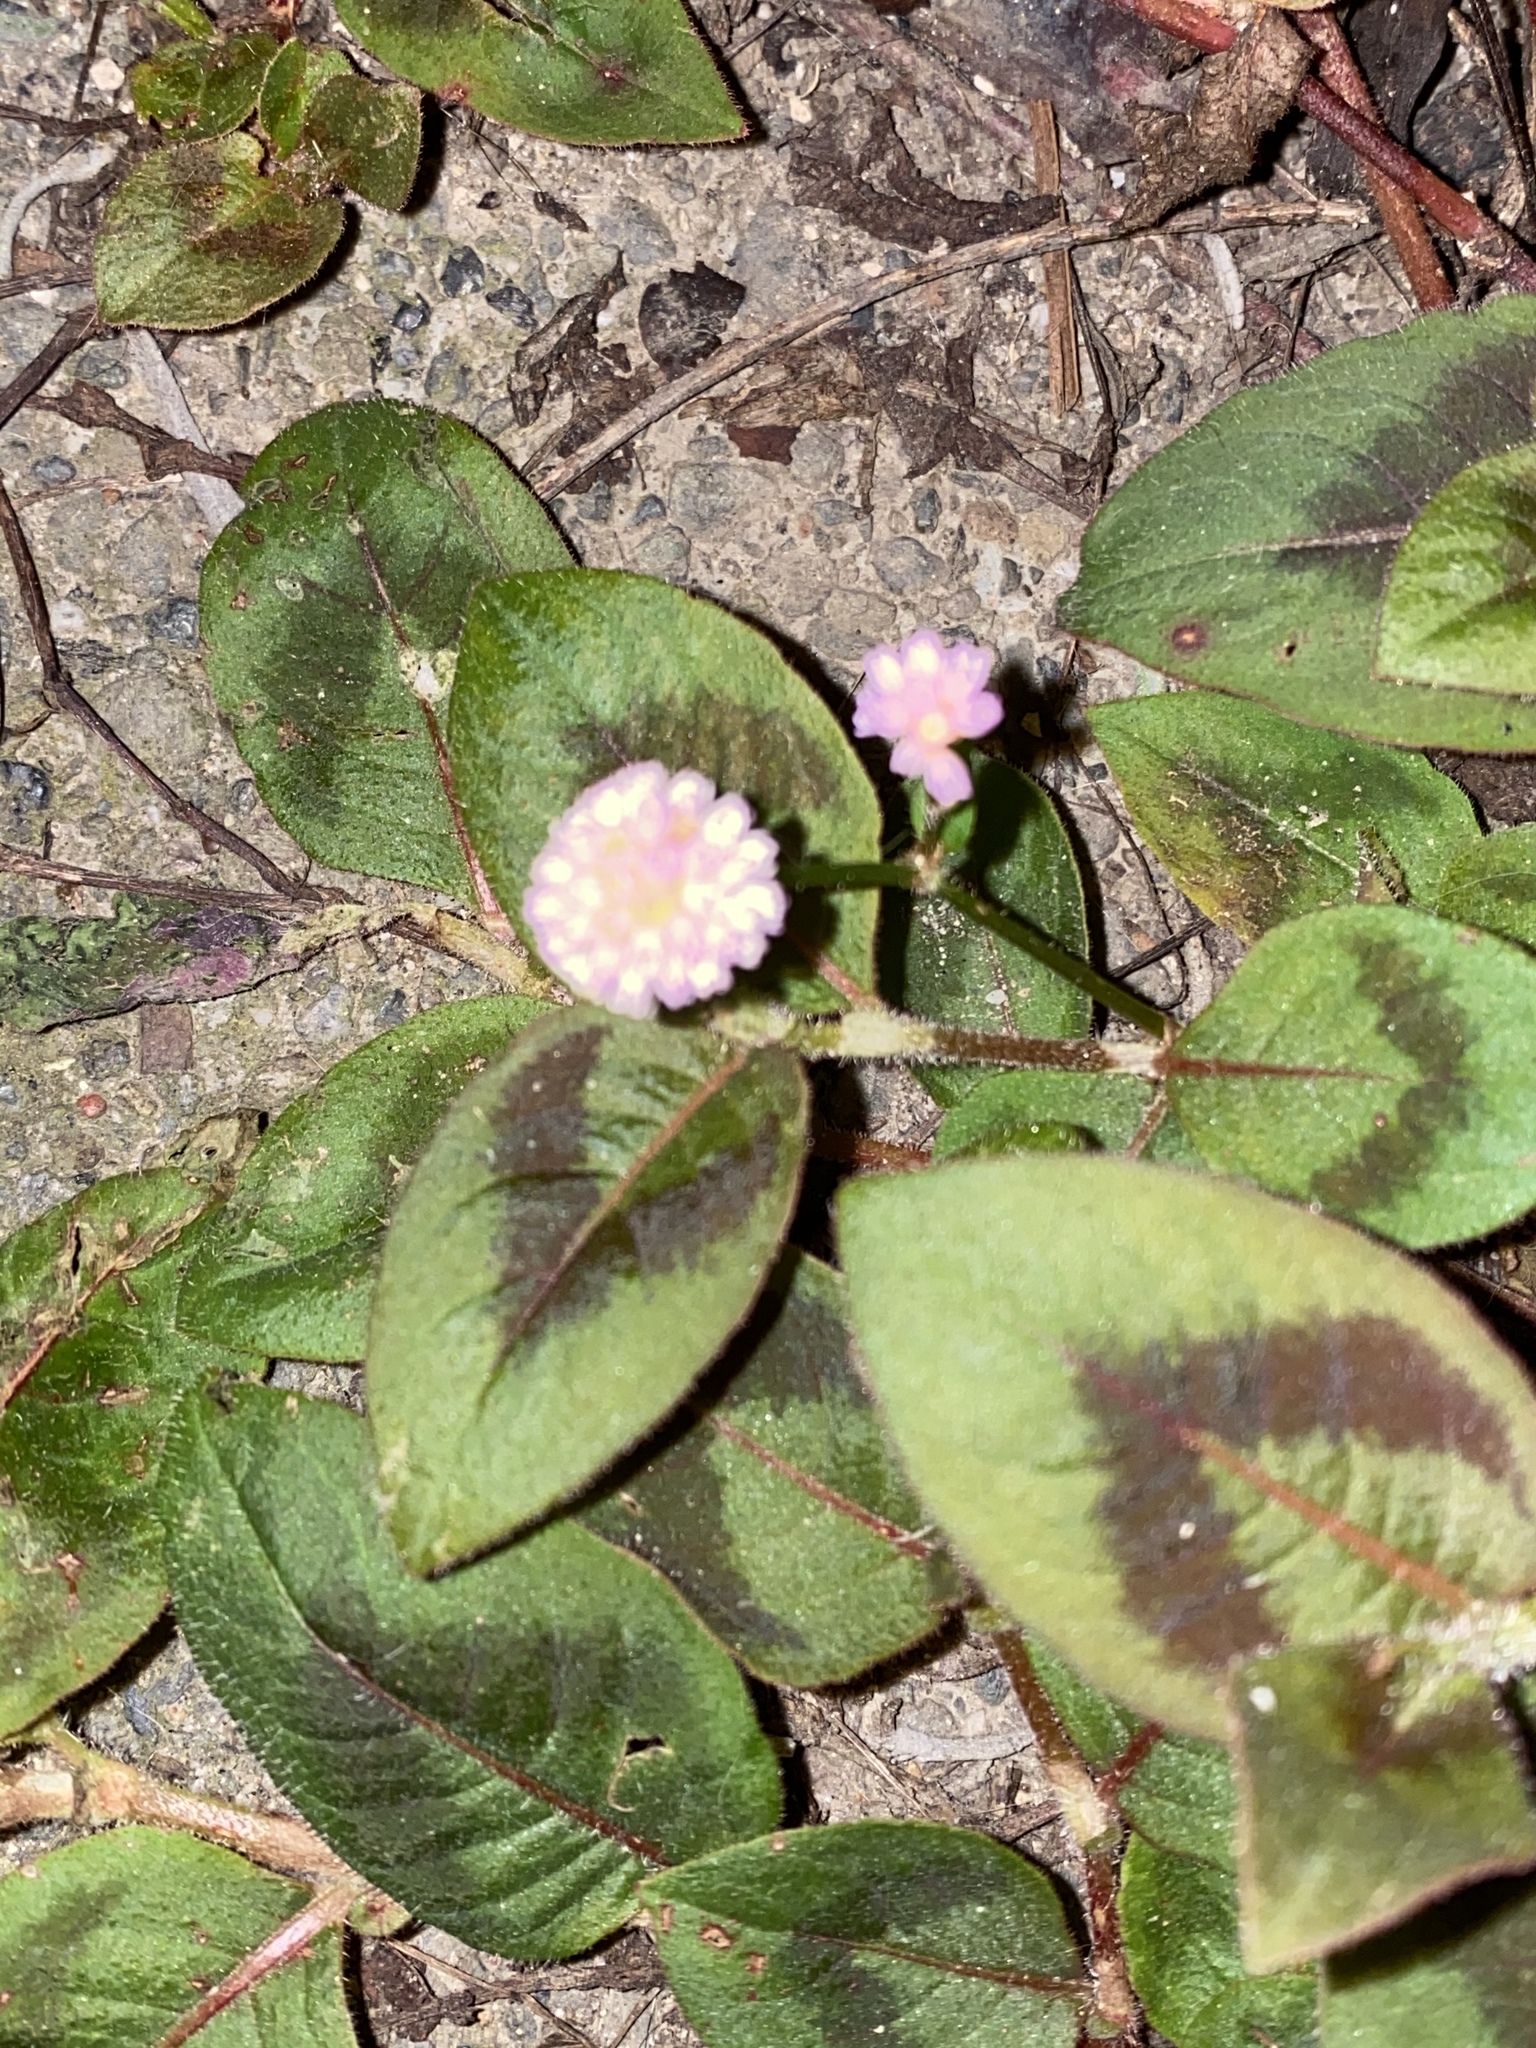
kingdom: Plantae
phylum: Tracheophyta
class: Magnoliopsida
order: Caryophyllales
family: Polygonaceae
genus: Persicaria
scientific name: Persicaria capitata
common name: Pinkhead smartweed
